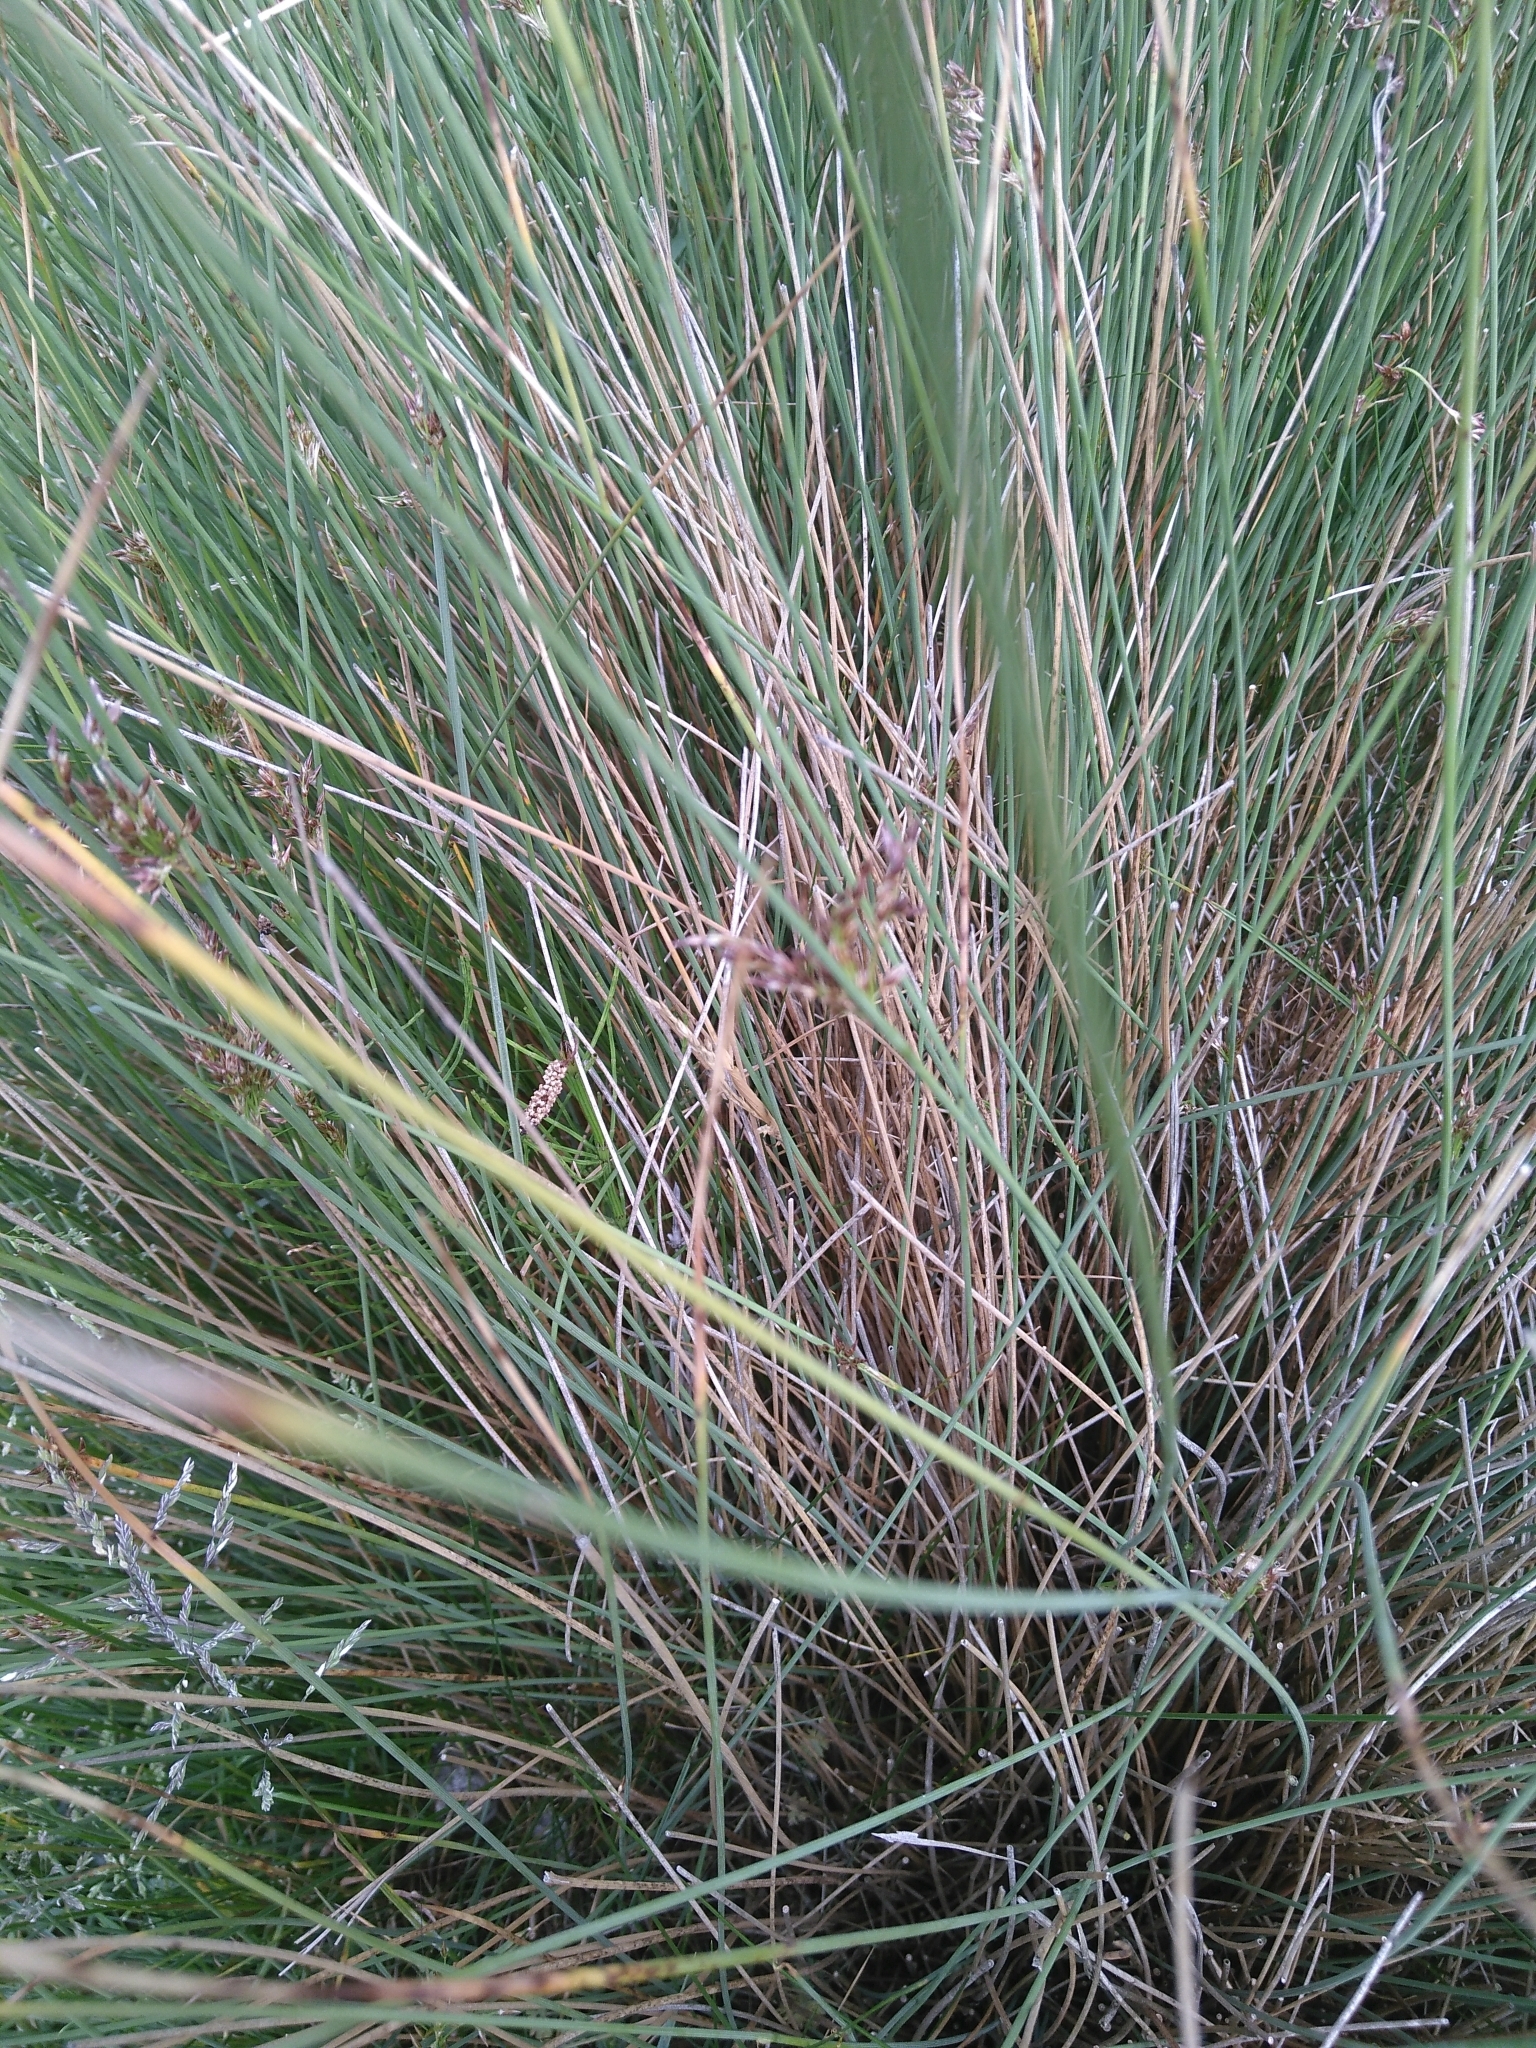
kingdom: Plantae
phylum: Tracheophyta
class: Liliopsida
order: Poales
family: Juncaceae
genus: Juncus
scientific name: Juncus inflexus
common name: Hard rush
